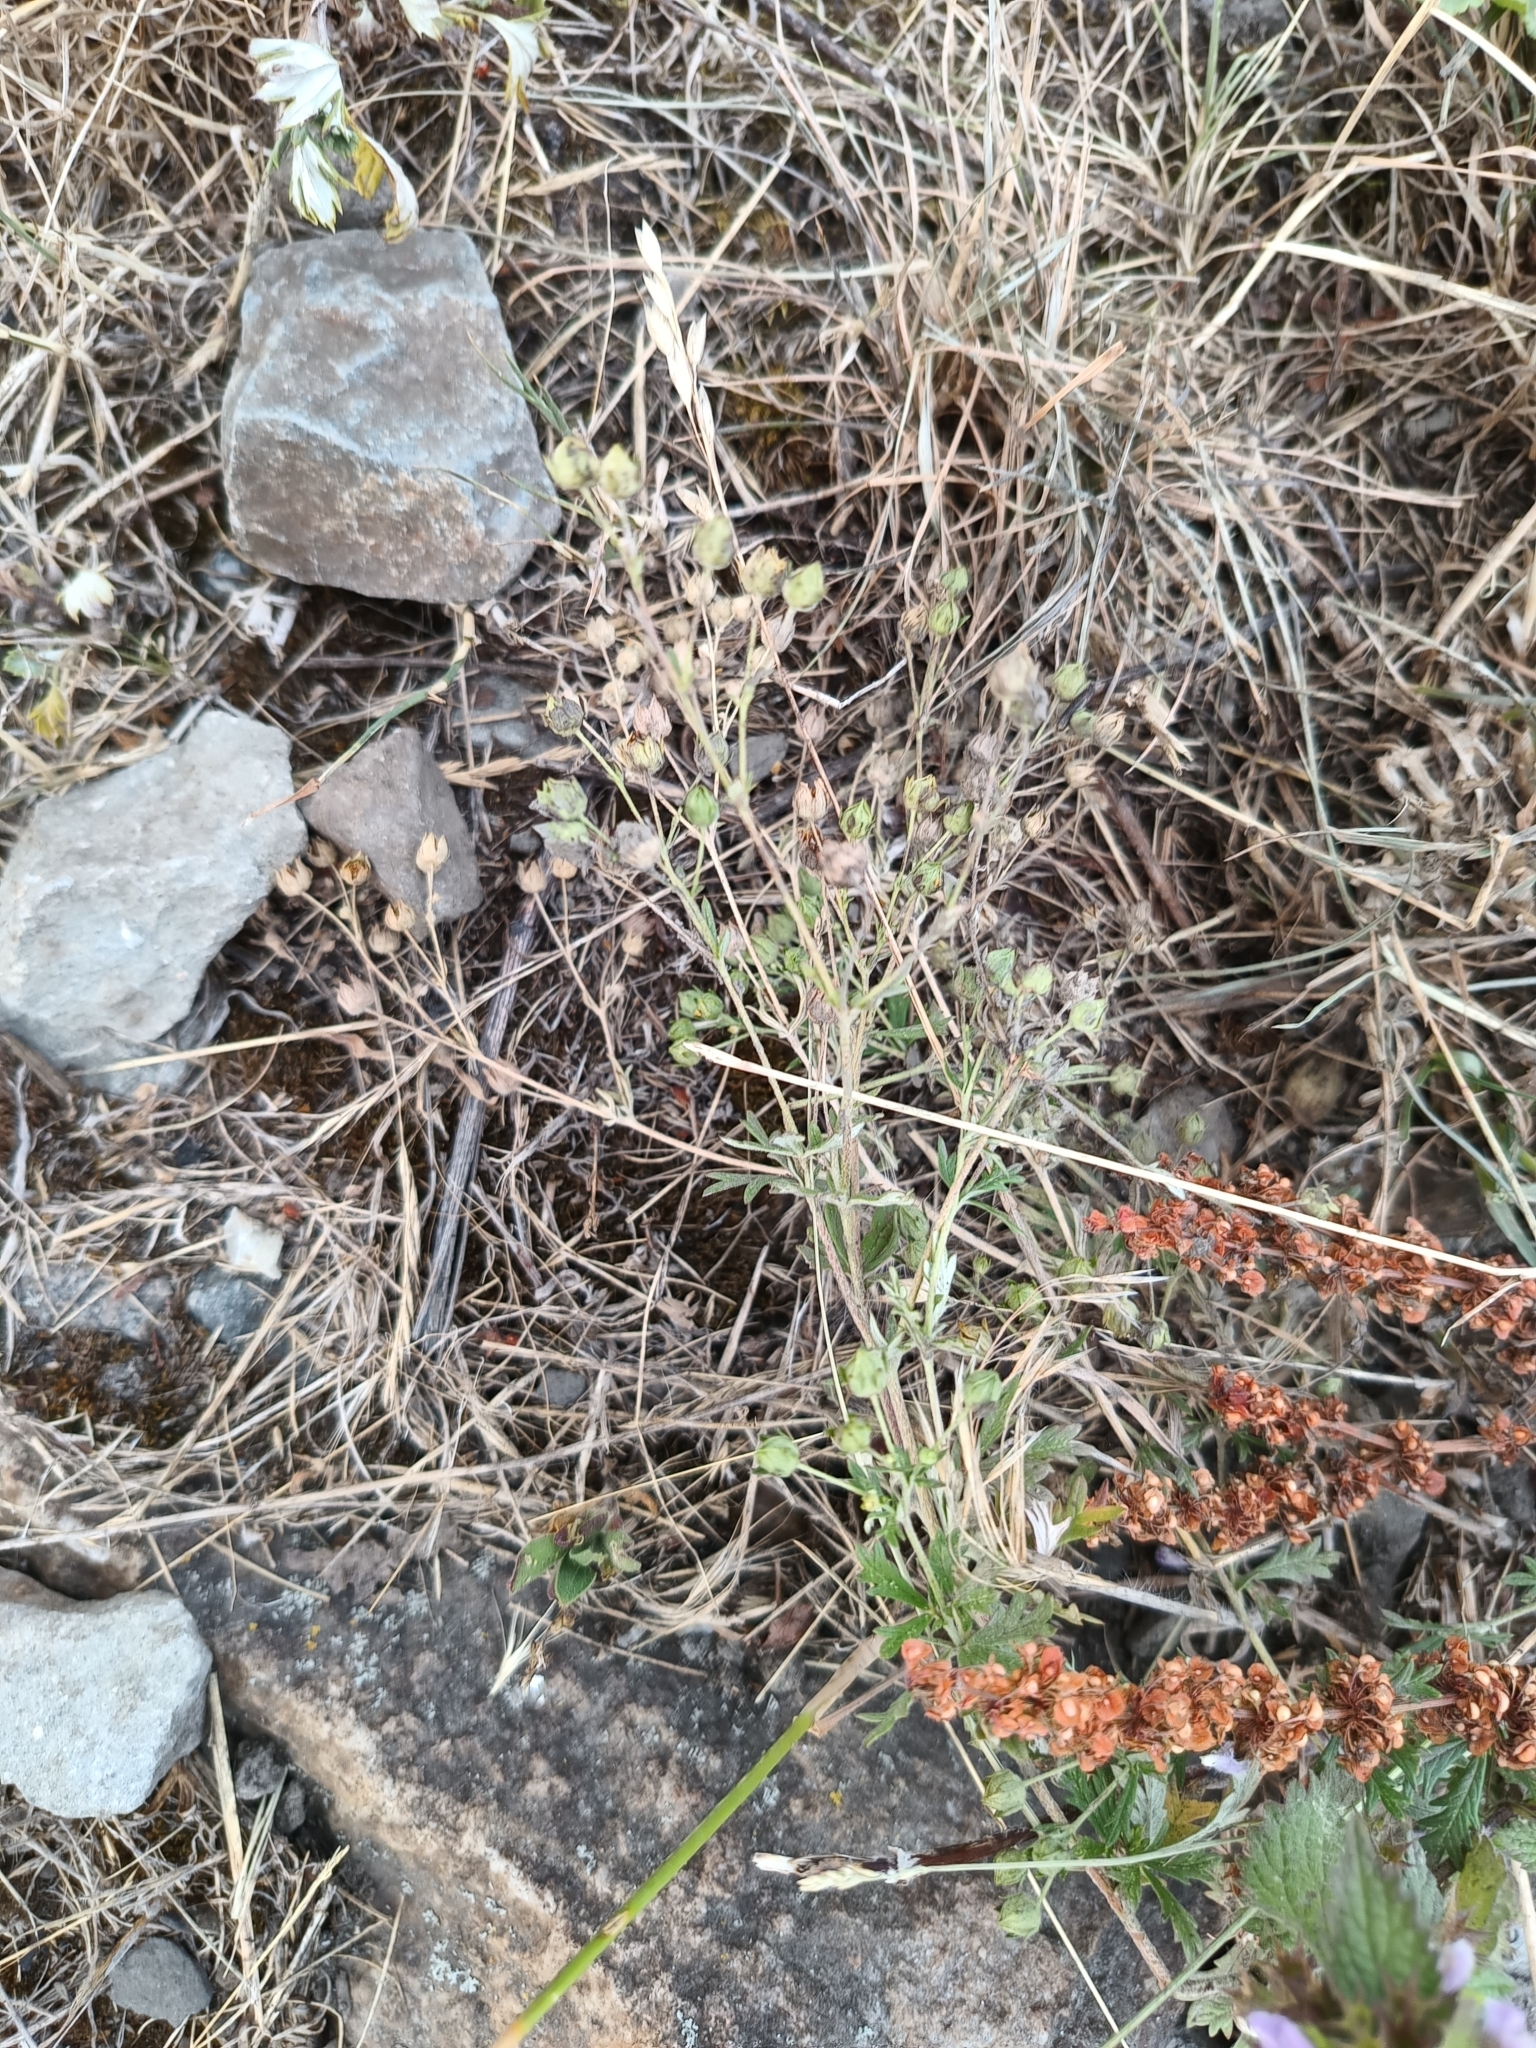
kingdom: Plantae
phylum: Tracheophyta
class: Magnoliopsida
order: Rosales
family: Rosaceae
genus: Potentilla
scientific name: Potentilla argentea
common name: Hoary cinquefoil
